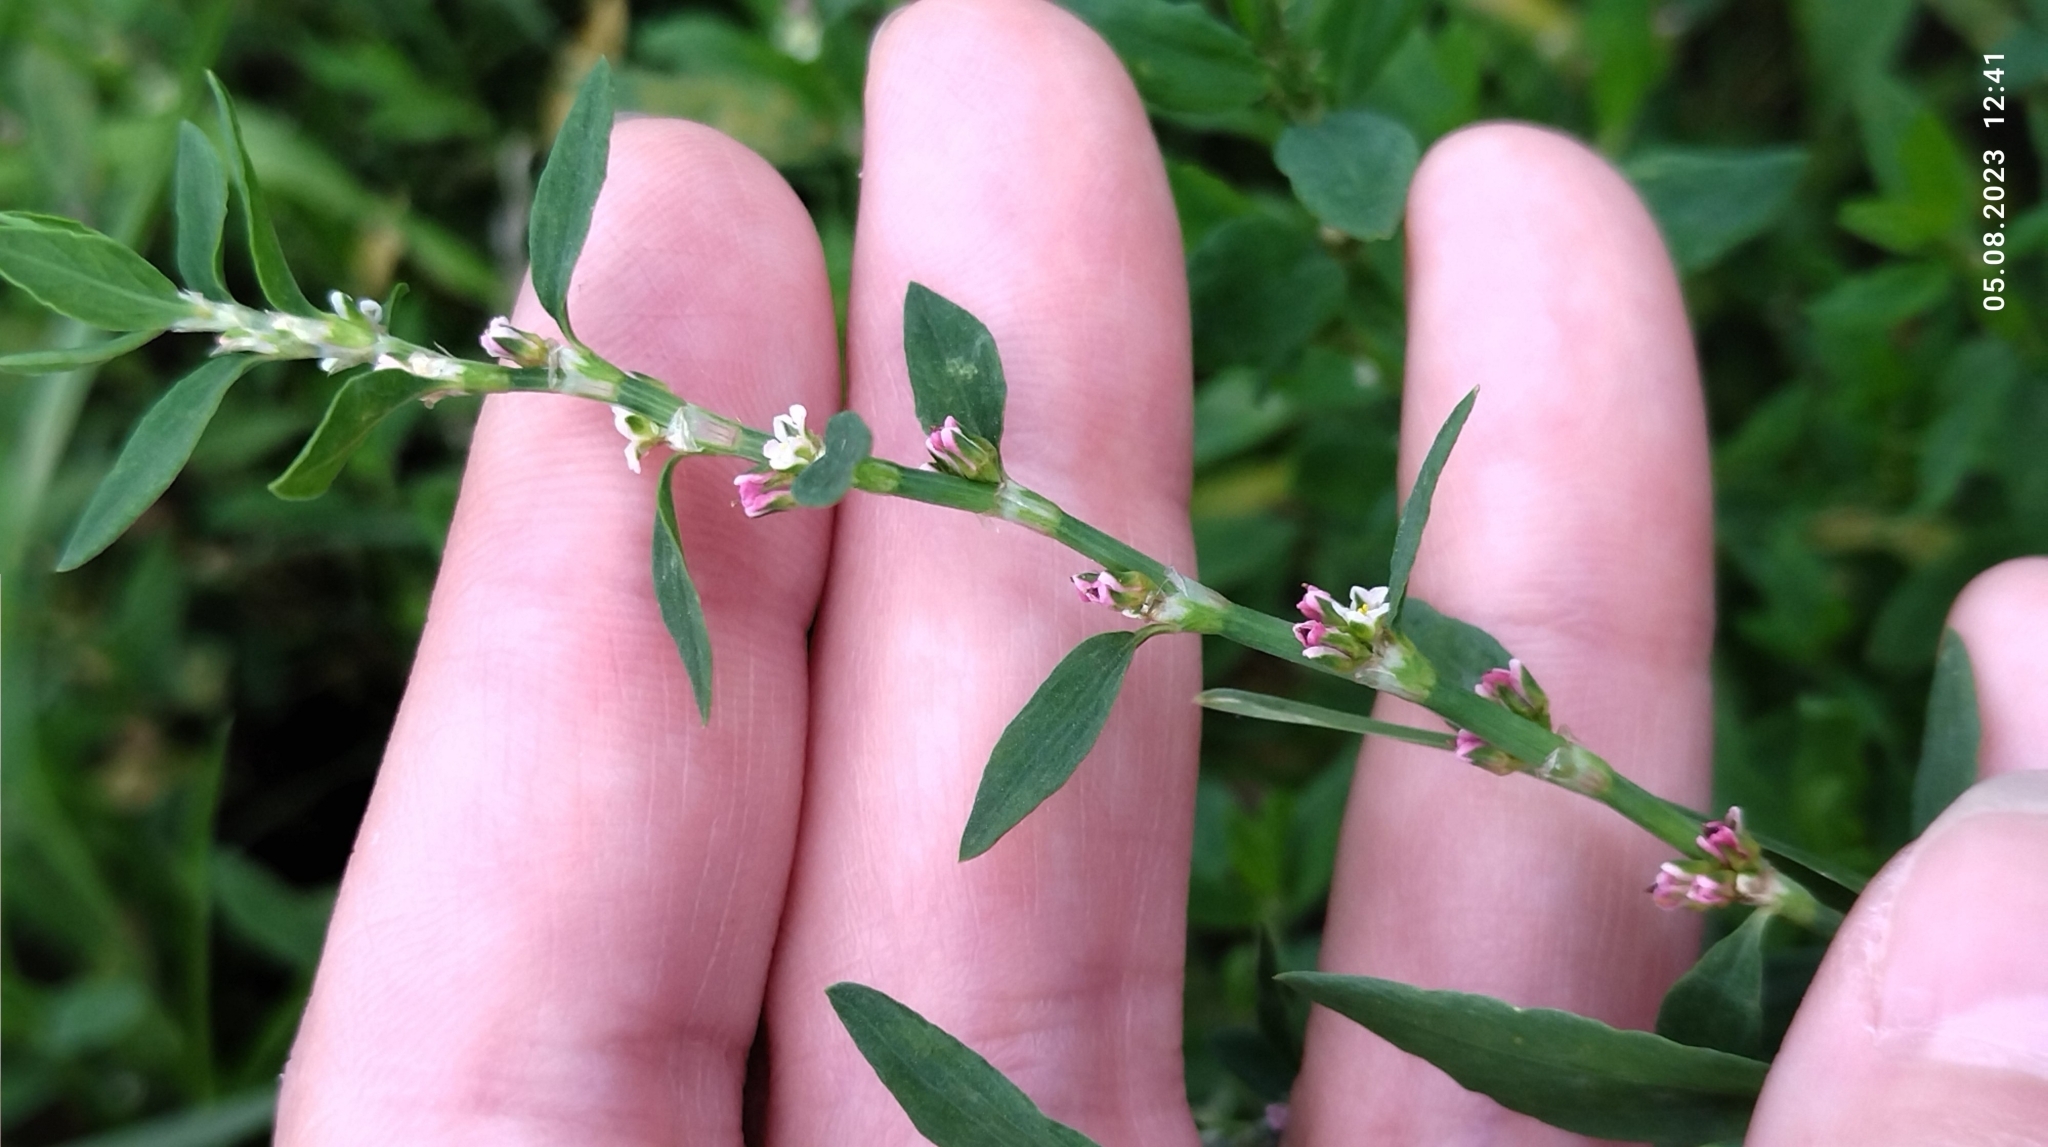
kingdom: Plantae
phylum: Tracheophyta
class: Magnoliopsida
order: Caryophyllales
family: Polygonaceae
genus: Polygonum
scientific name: Polygonum
